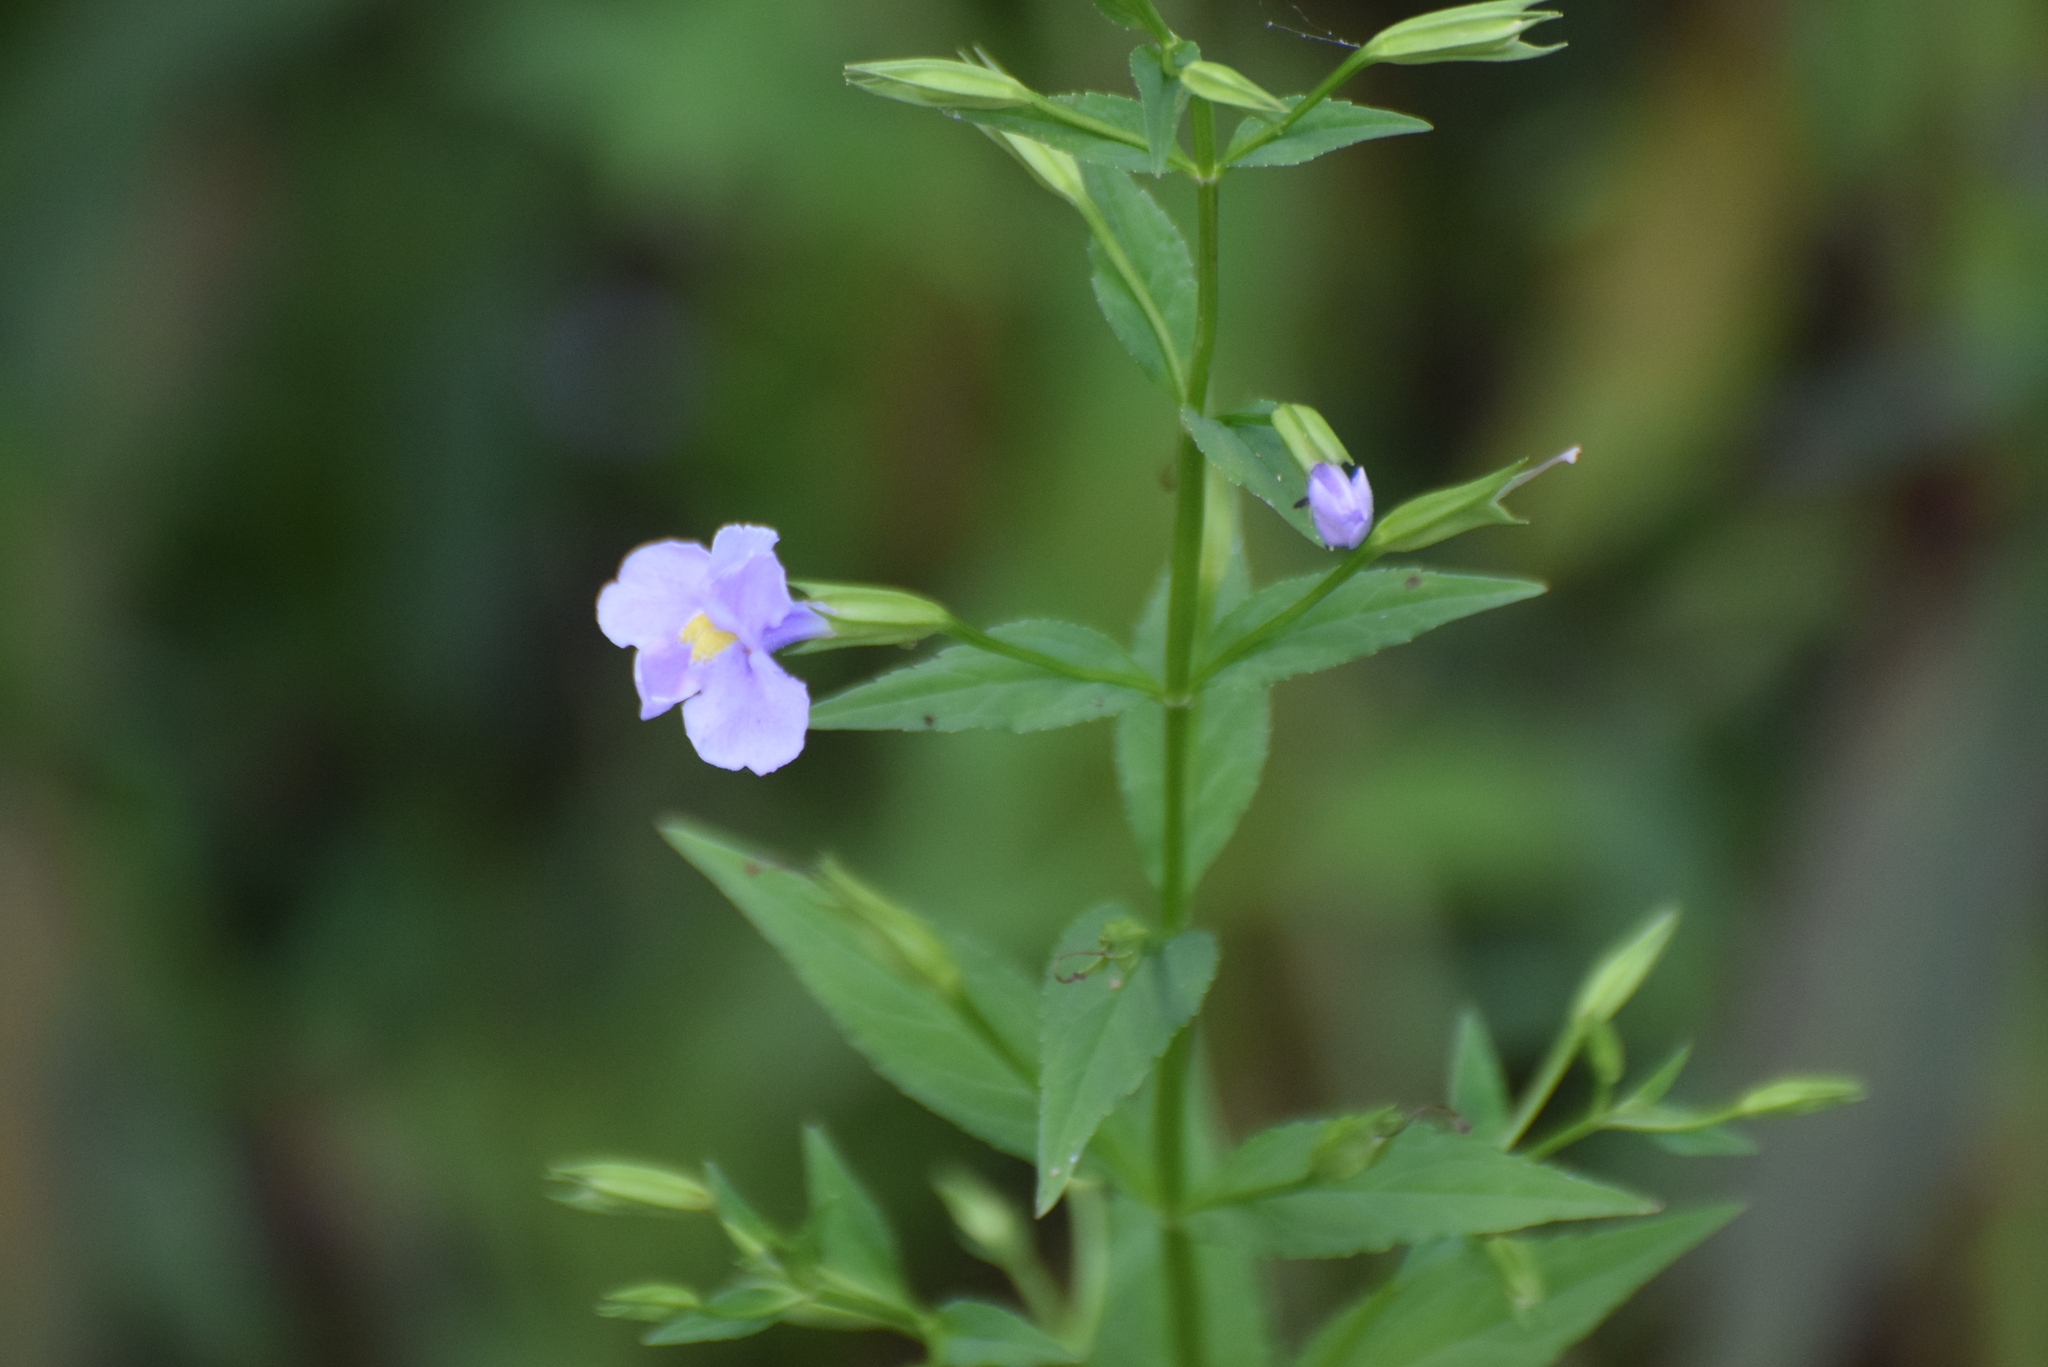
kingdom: Plantae
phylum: Tracheophyta
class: Magnoliopsida
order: Lamiales
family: Phrymaceae
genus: Mimulus
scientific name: Mimulus ringens
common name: Allegheny monkeyflower
